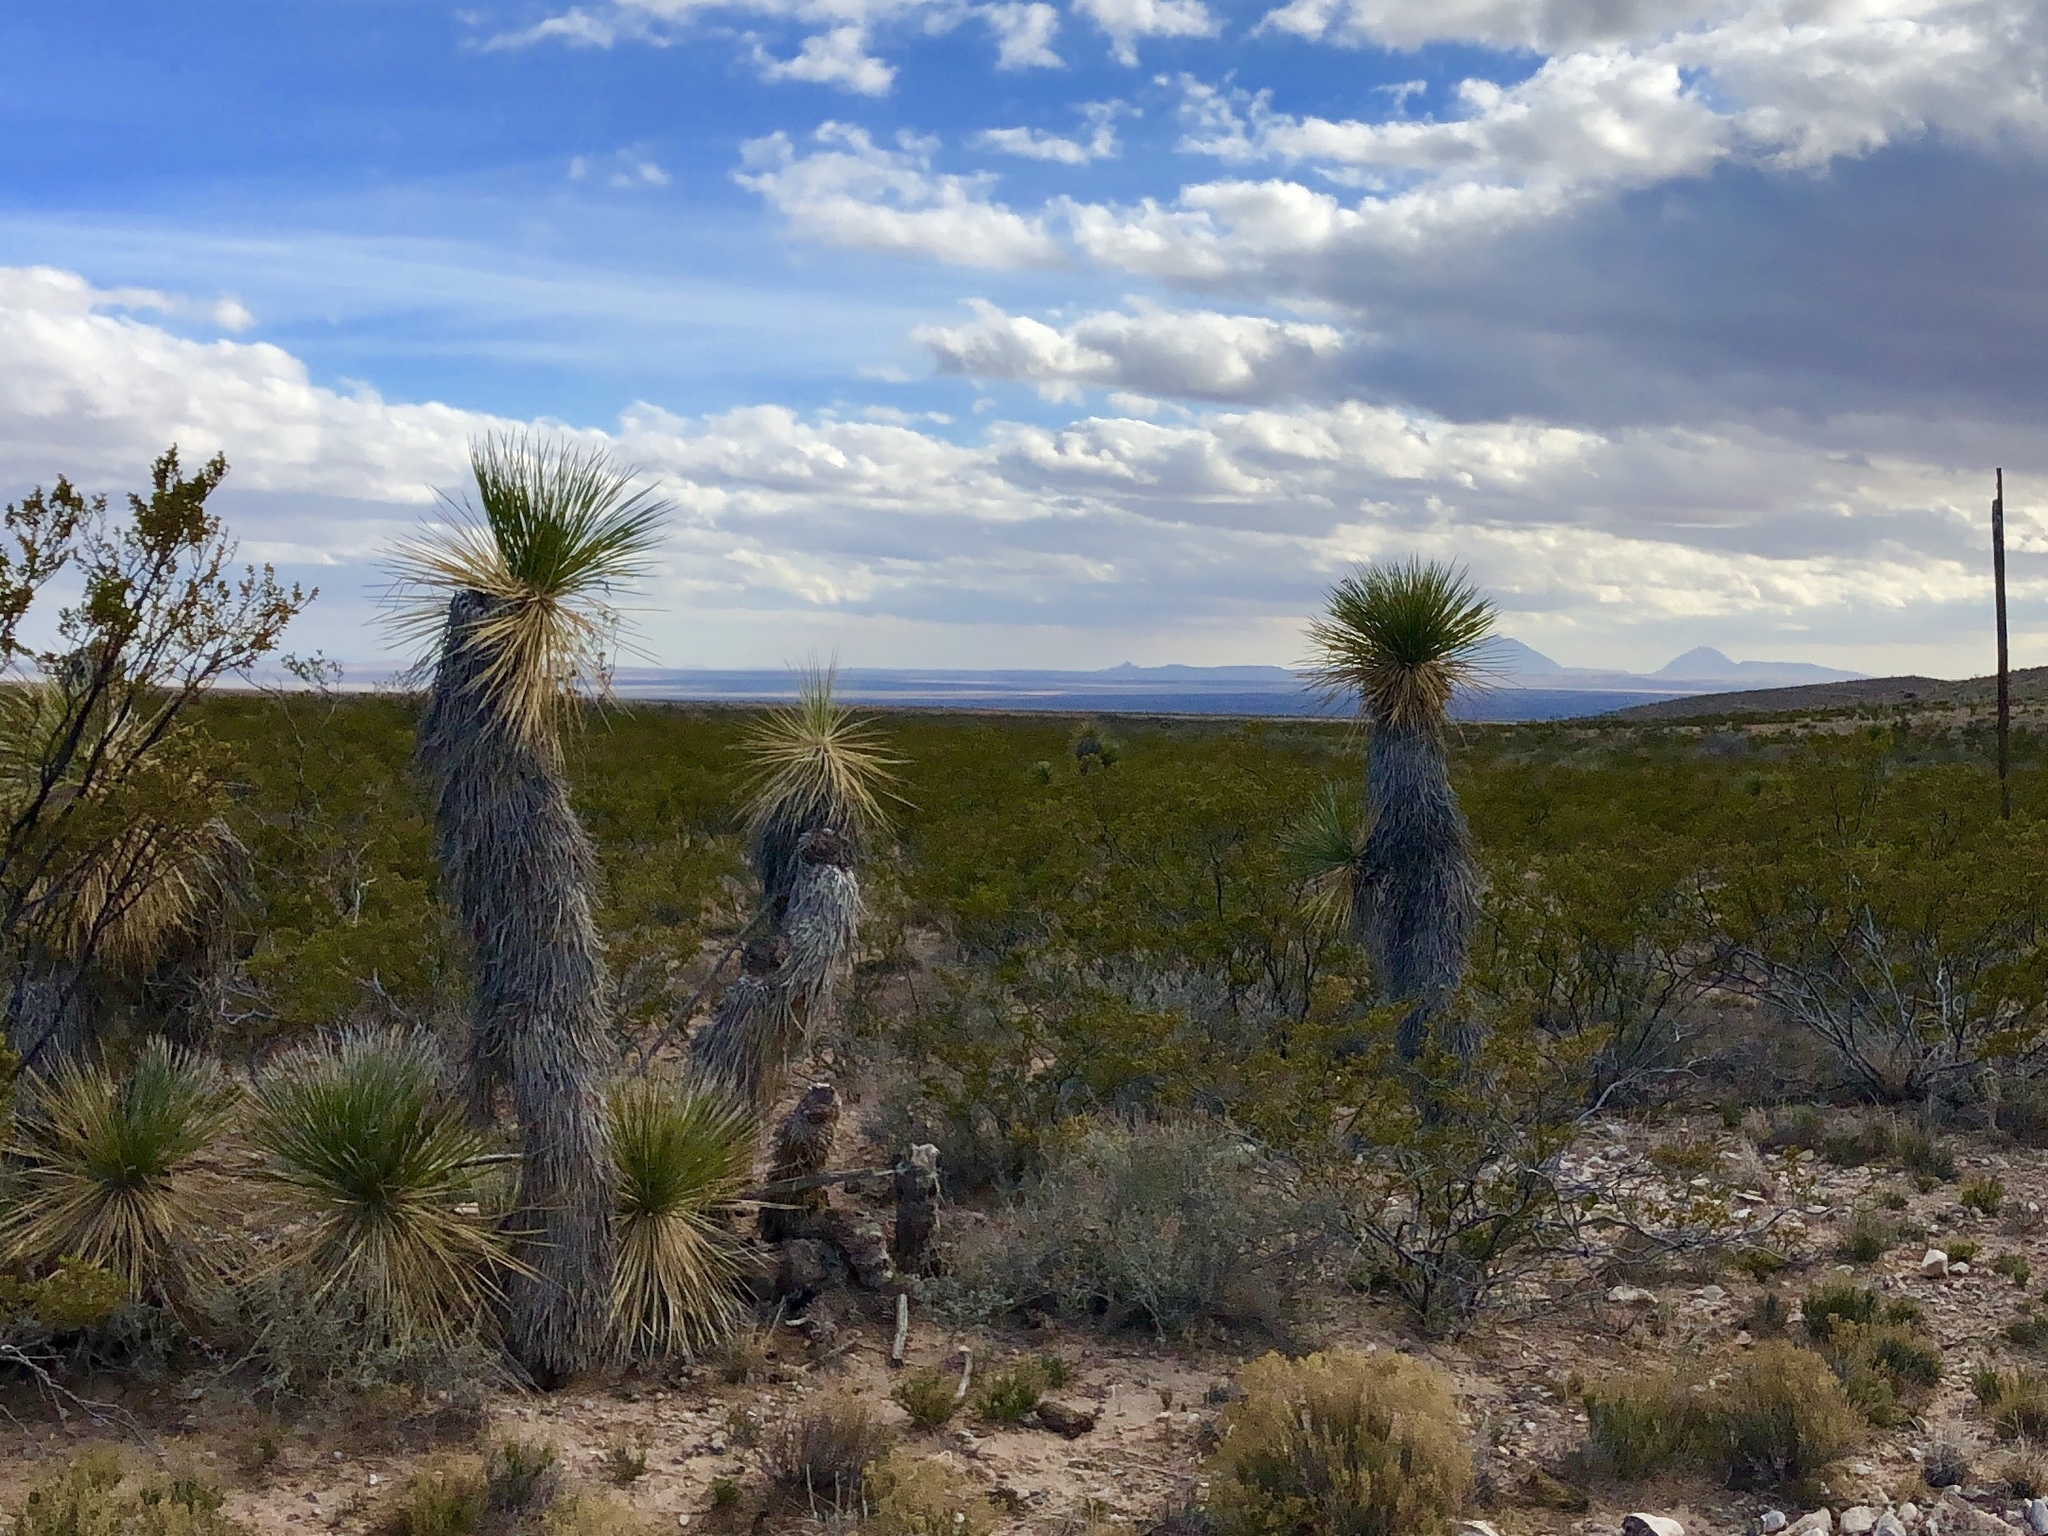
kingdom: Plantae
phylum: Tracheophyta
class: Liliopsida
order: Asparagales
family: Asparagaceae
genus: Yucca
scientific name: Yucca elata
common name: Palmella
